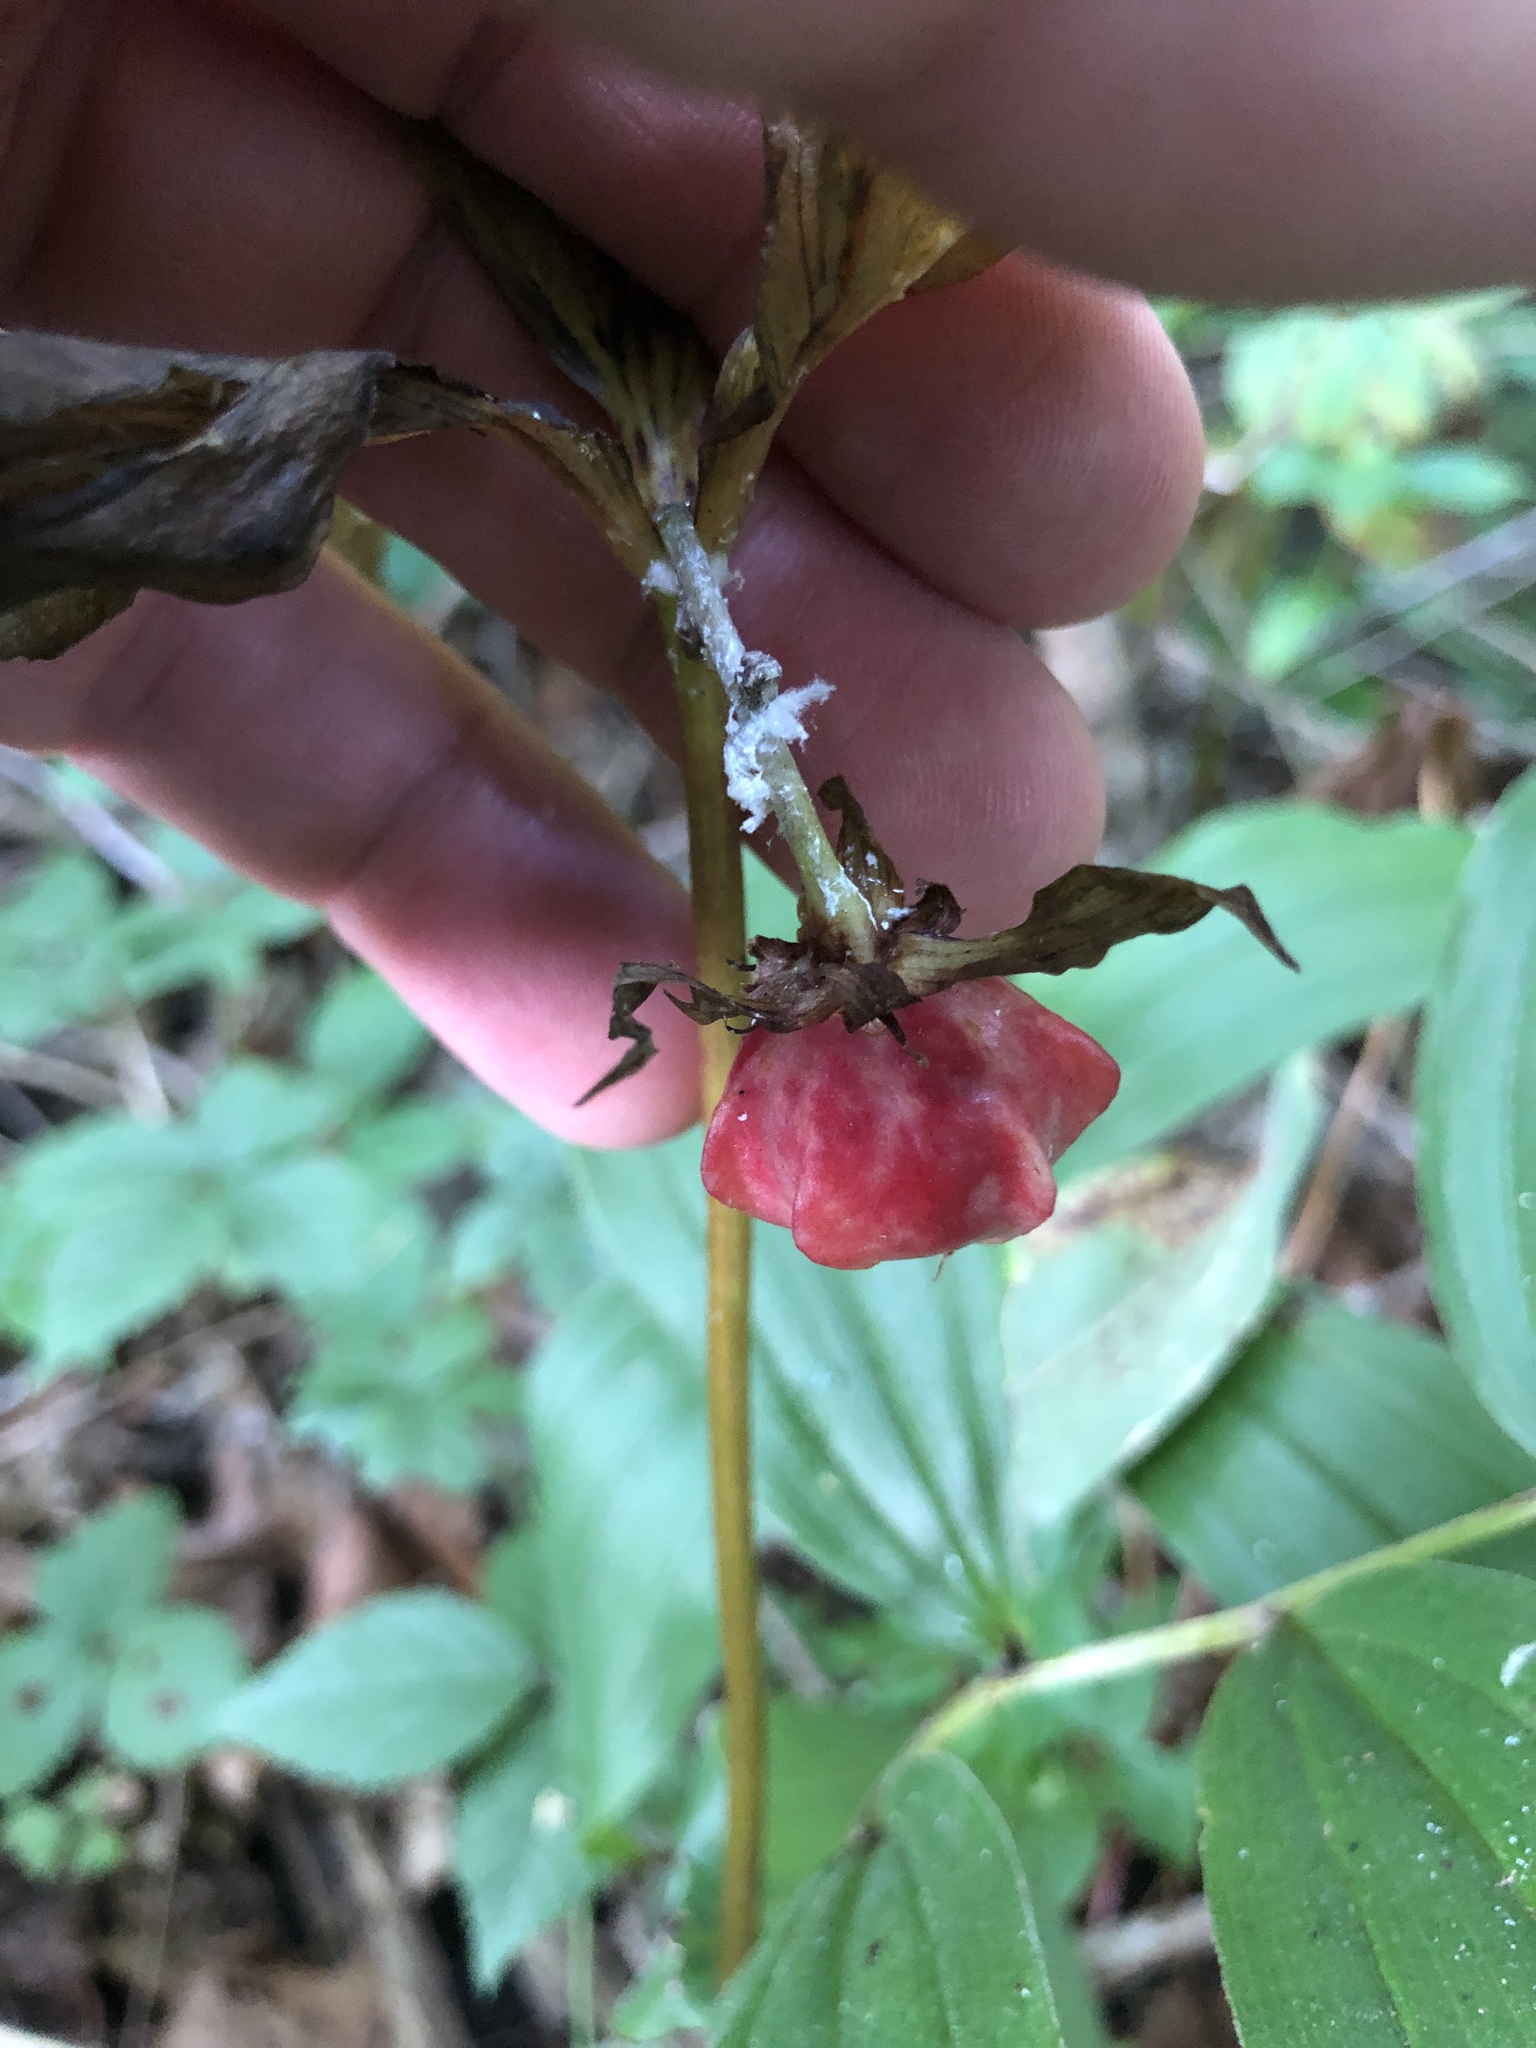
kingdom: Plantae
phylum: Tracheophyta
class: Liliopsida
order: Liliales
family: Melanthiaceae
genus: Trillium
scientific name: Trillium cernuum
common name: Nodding trillium
